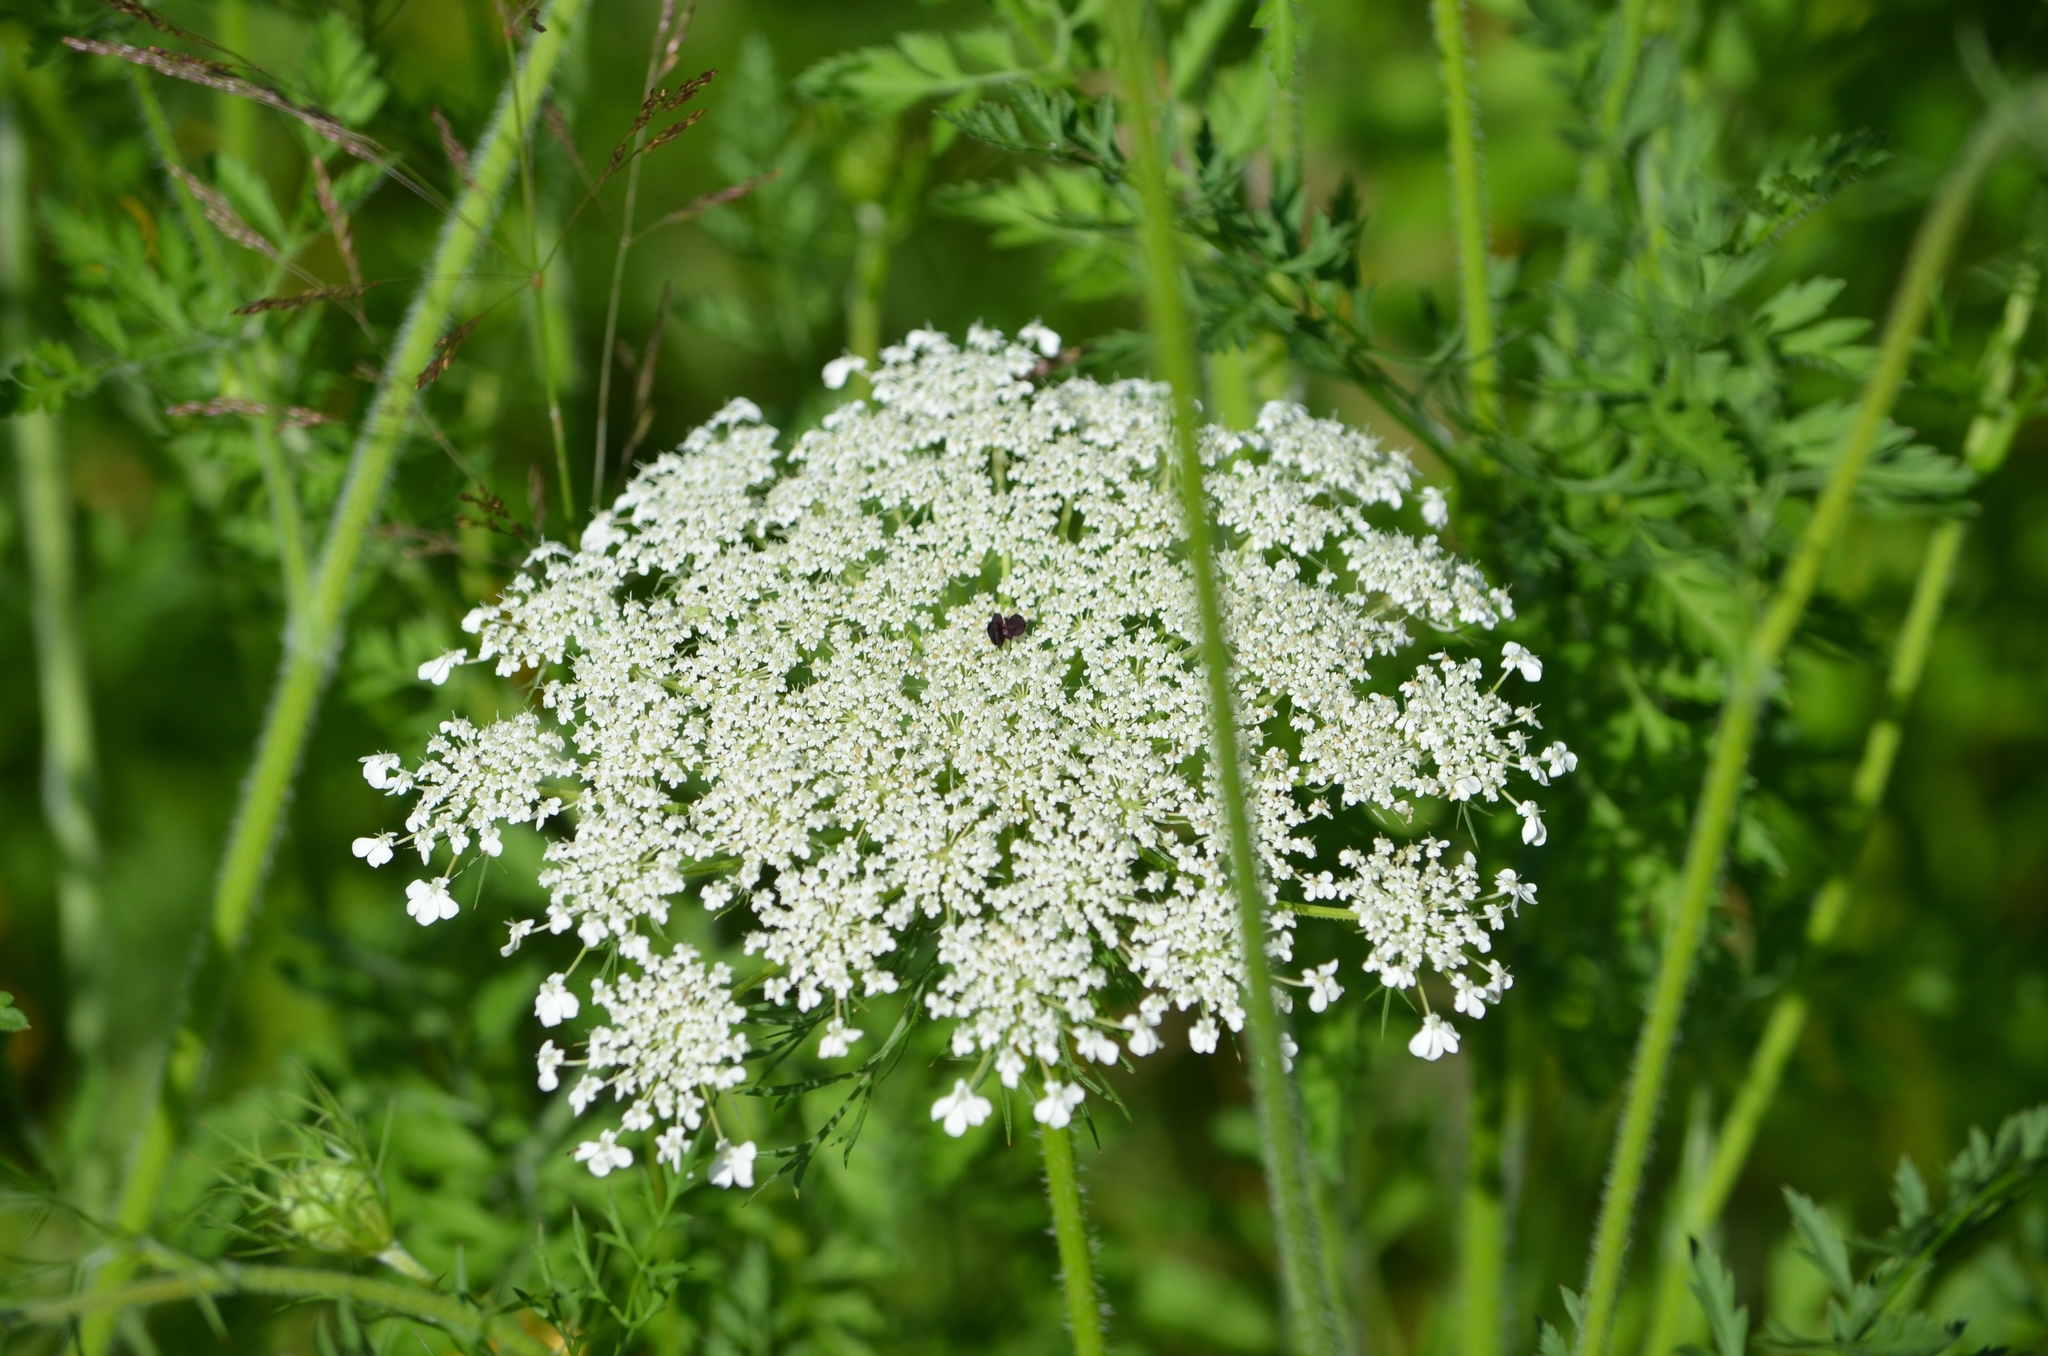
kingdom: Plantae
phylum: Tracheophyta
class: Magnoliopsida
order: Apiales
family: Apiaceae
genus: Daucus
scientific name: Daucus carota
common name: Wild carrot
